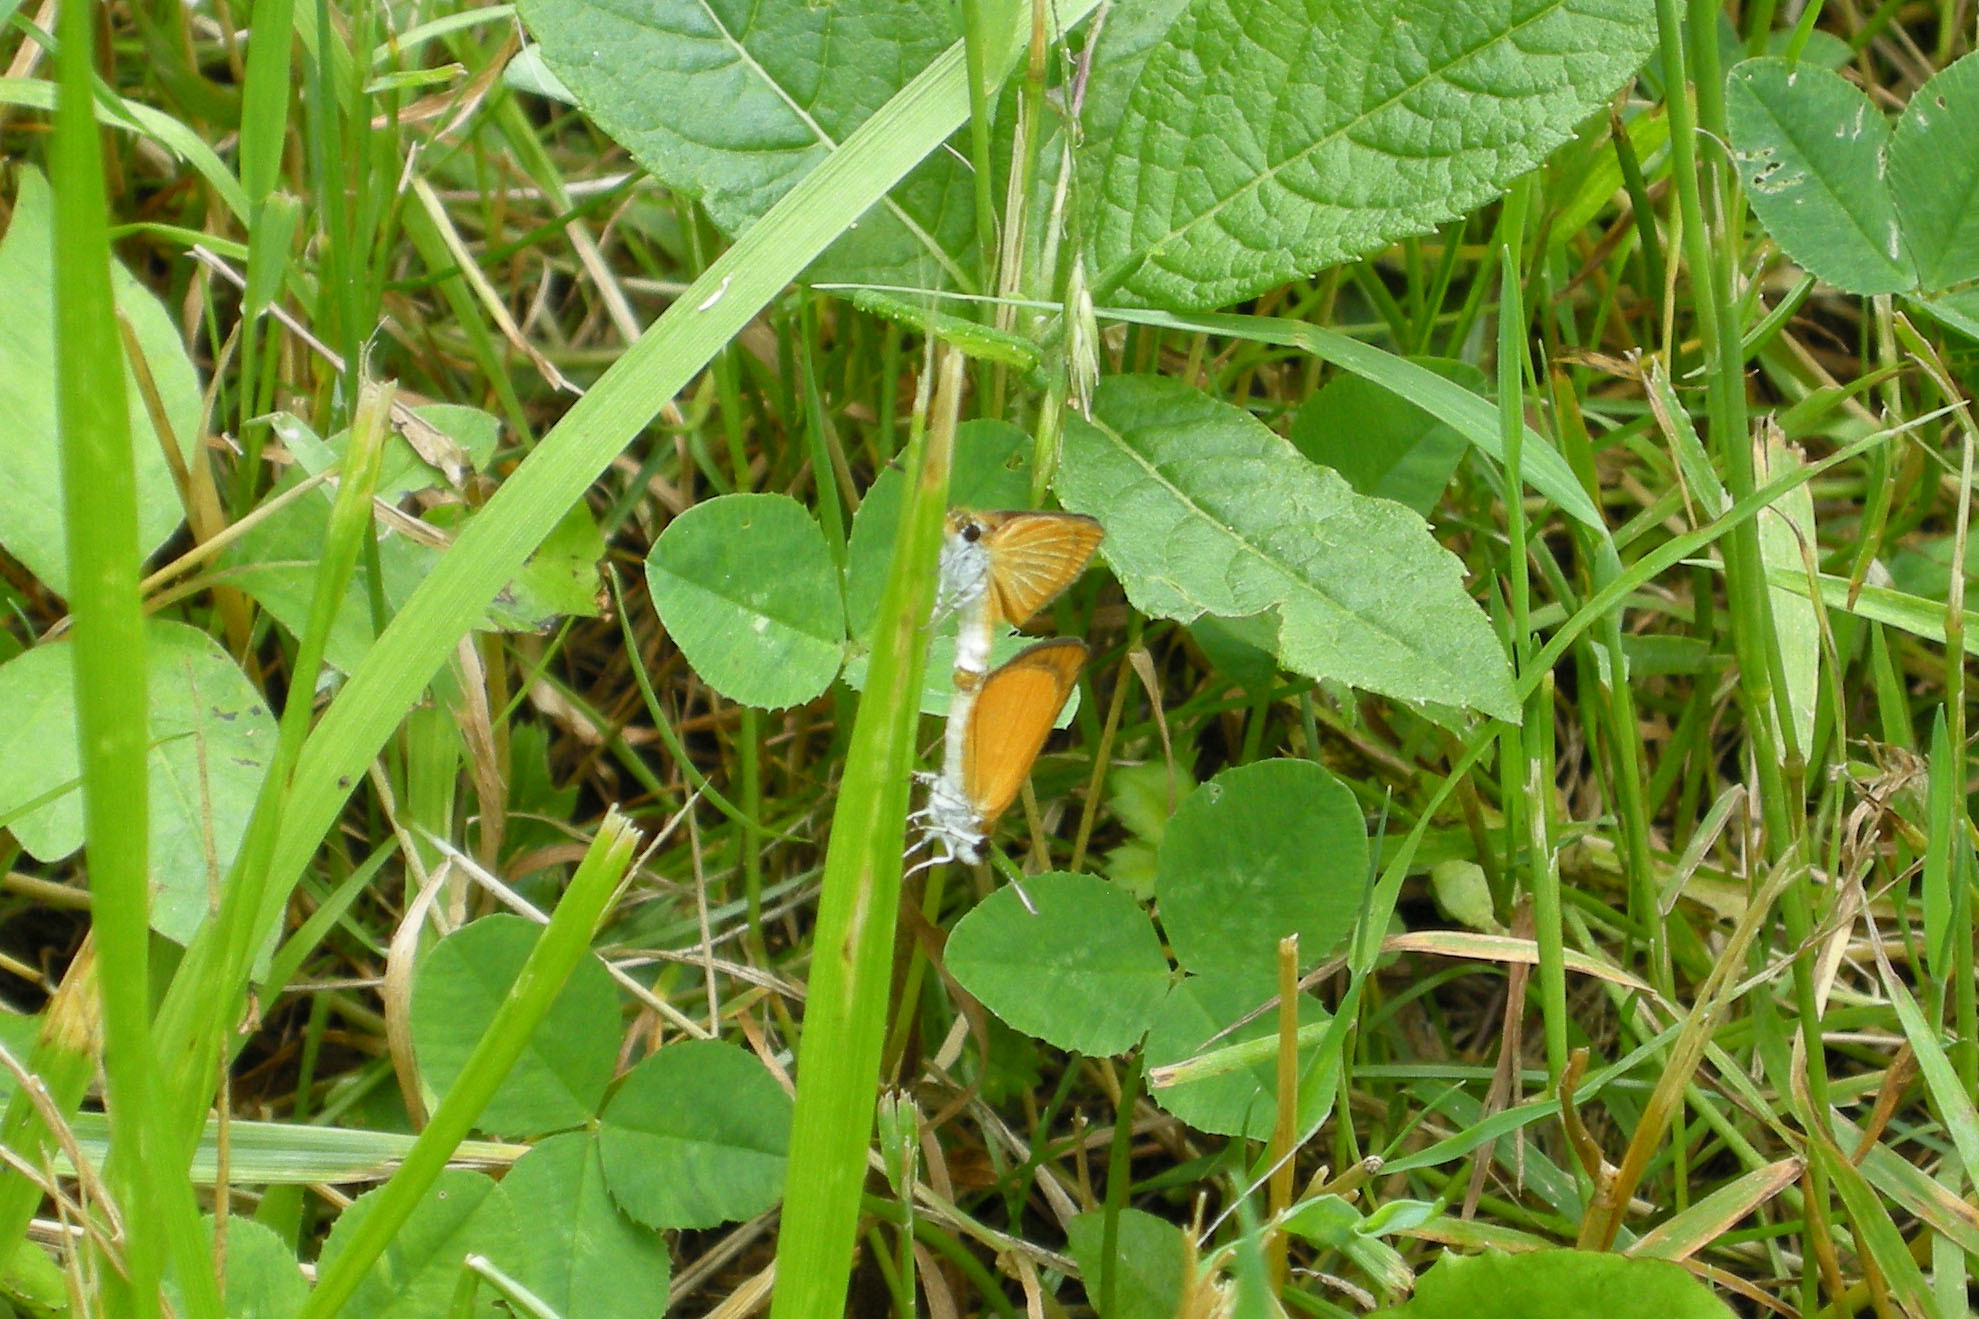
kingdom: Animalia
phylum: Arthropoda
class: Insecta
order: Lepidoptera
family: Hesperiidae
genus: Ancyloxypha
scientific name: Ancyloxypha numitor
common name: Least skipper
